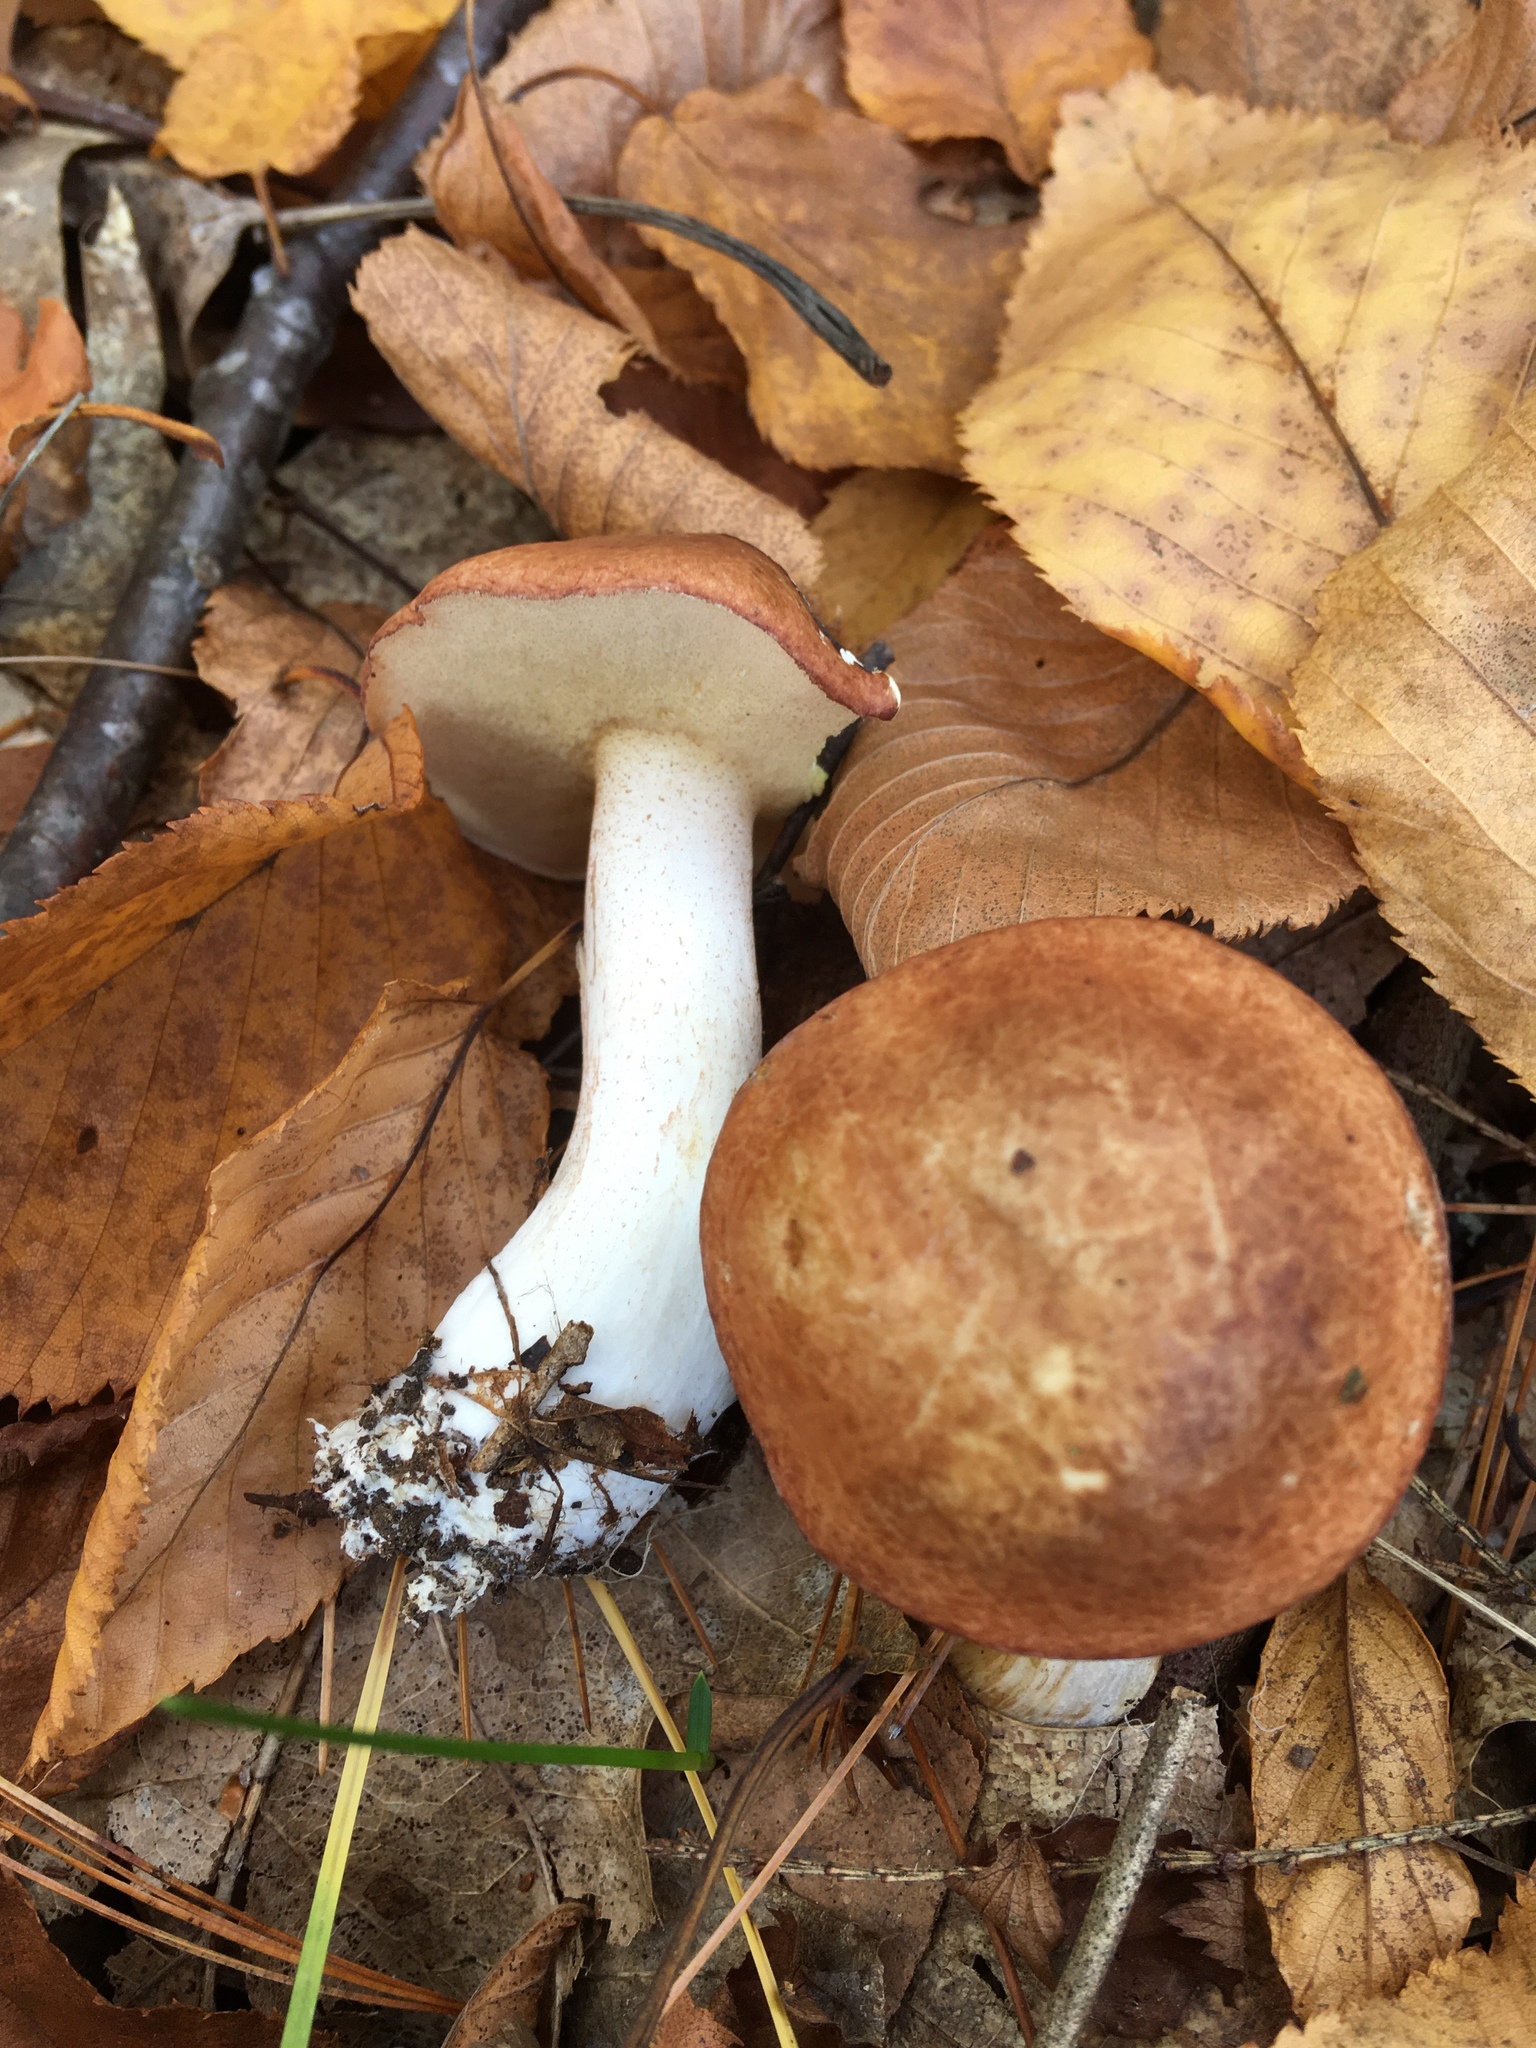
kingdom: Fungi
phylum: Basidiomycota
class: Agaricomycetes
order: Boletales
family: Suillaceae
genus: Fuscoboletinus
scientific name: Fuscoboletinus weaverae
